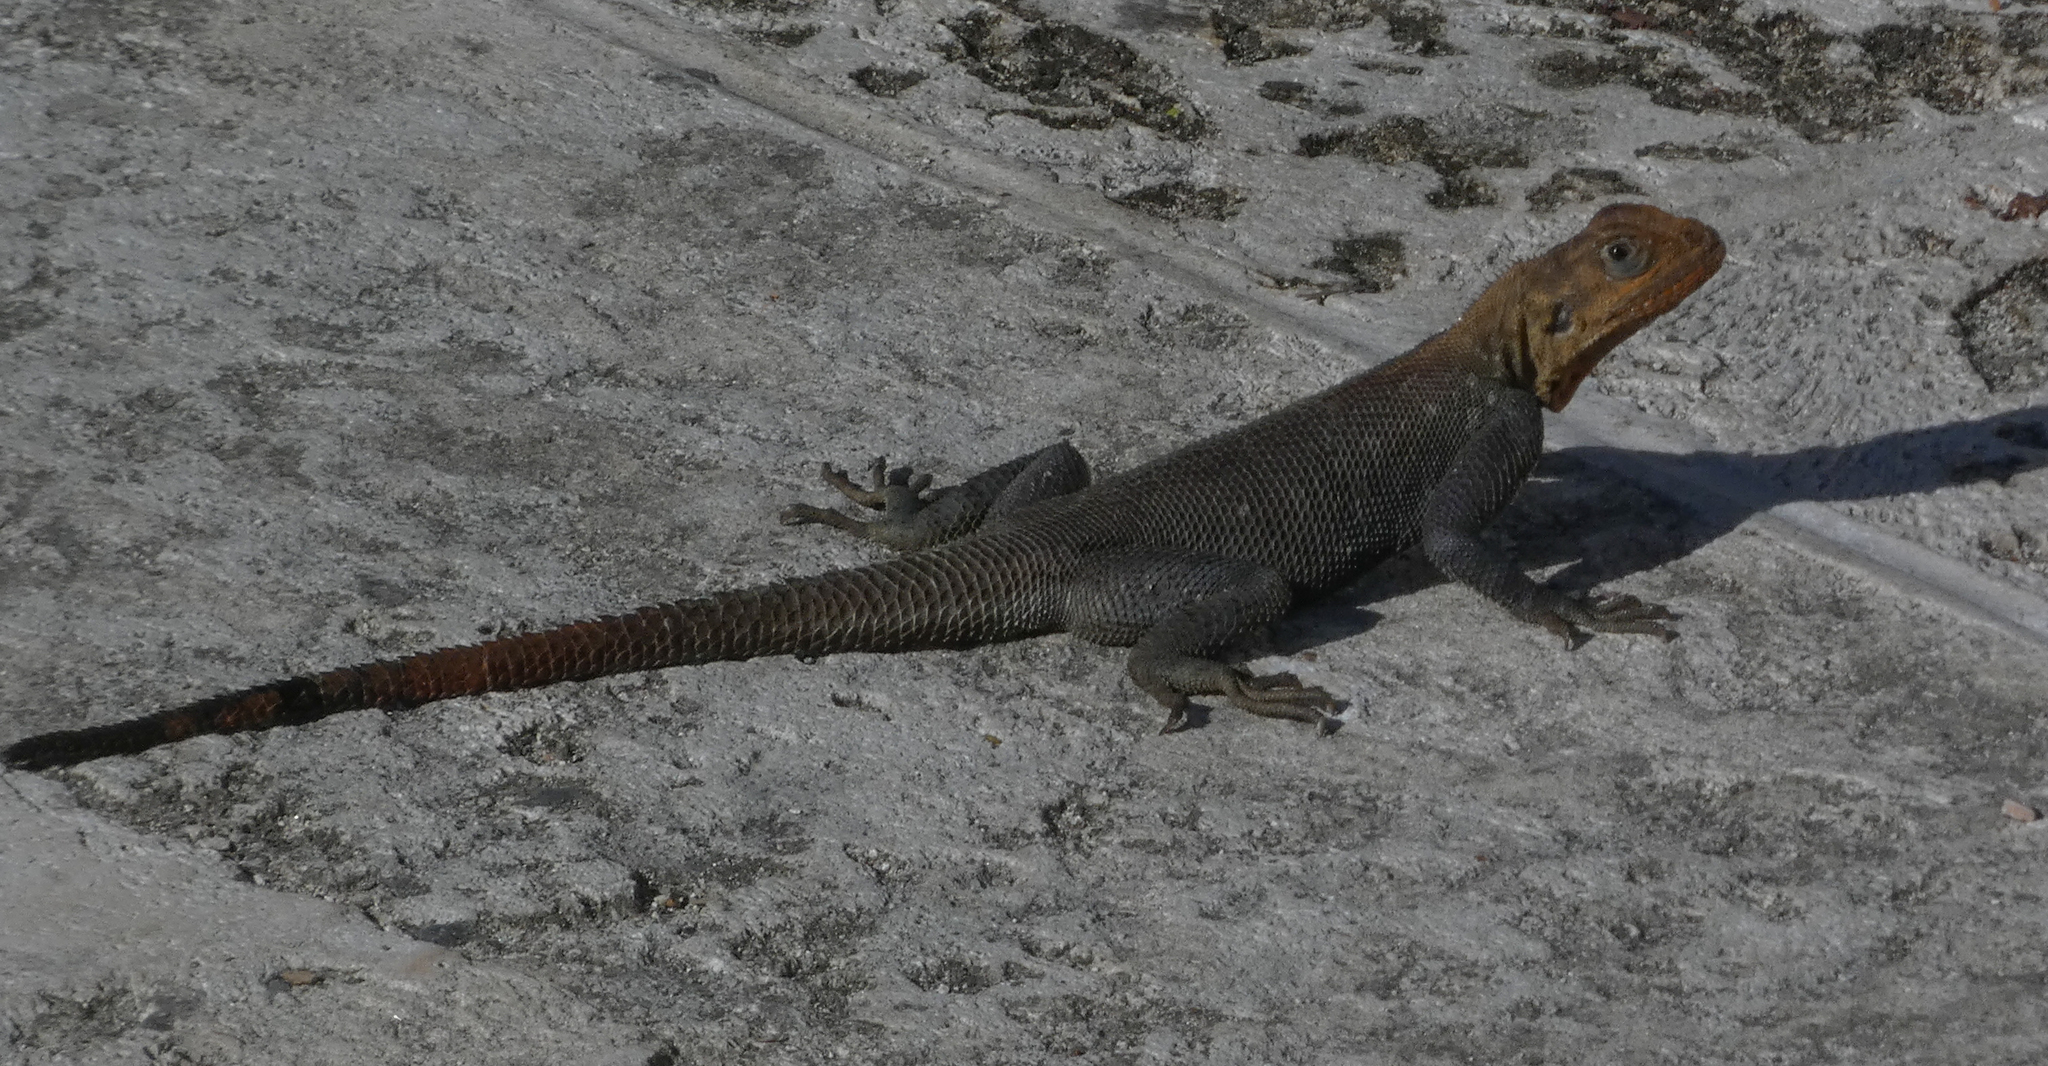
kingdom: Animalia
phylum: Chordata
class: Squamata
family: Agamidae
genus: Agama
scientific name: Agama picticauda
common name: Red-headed agama
